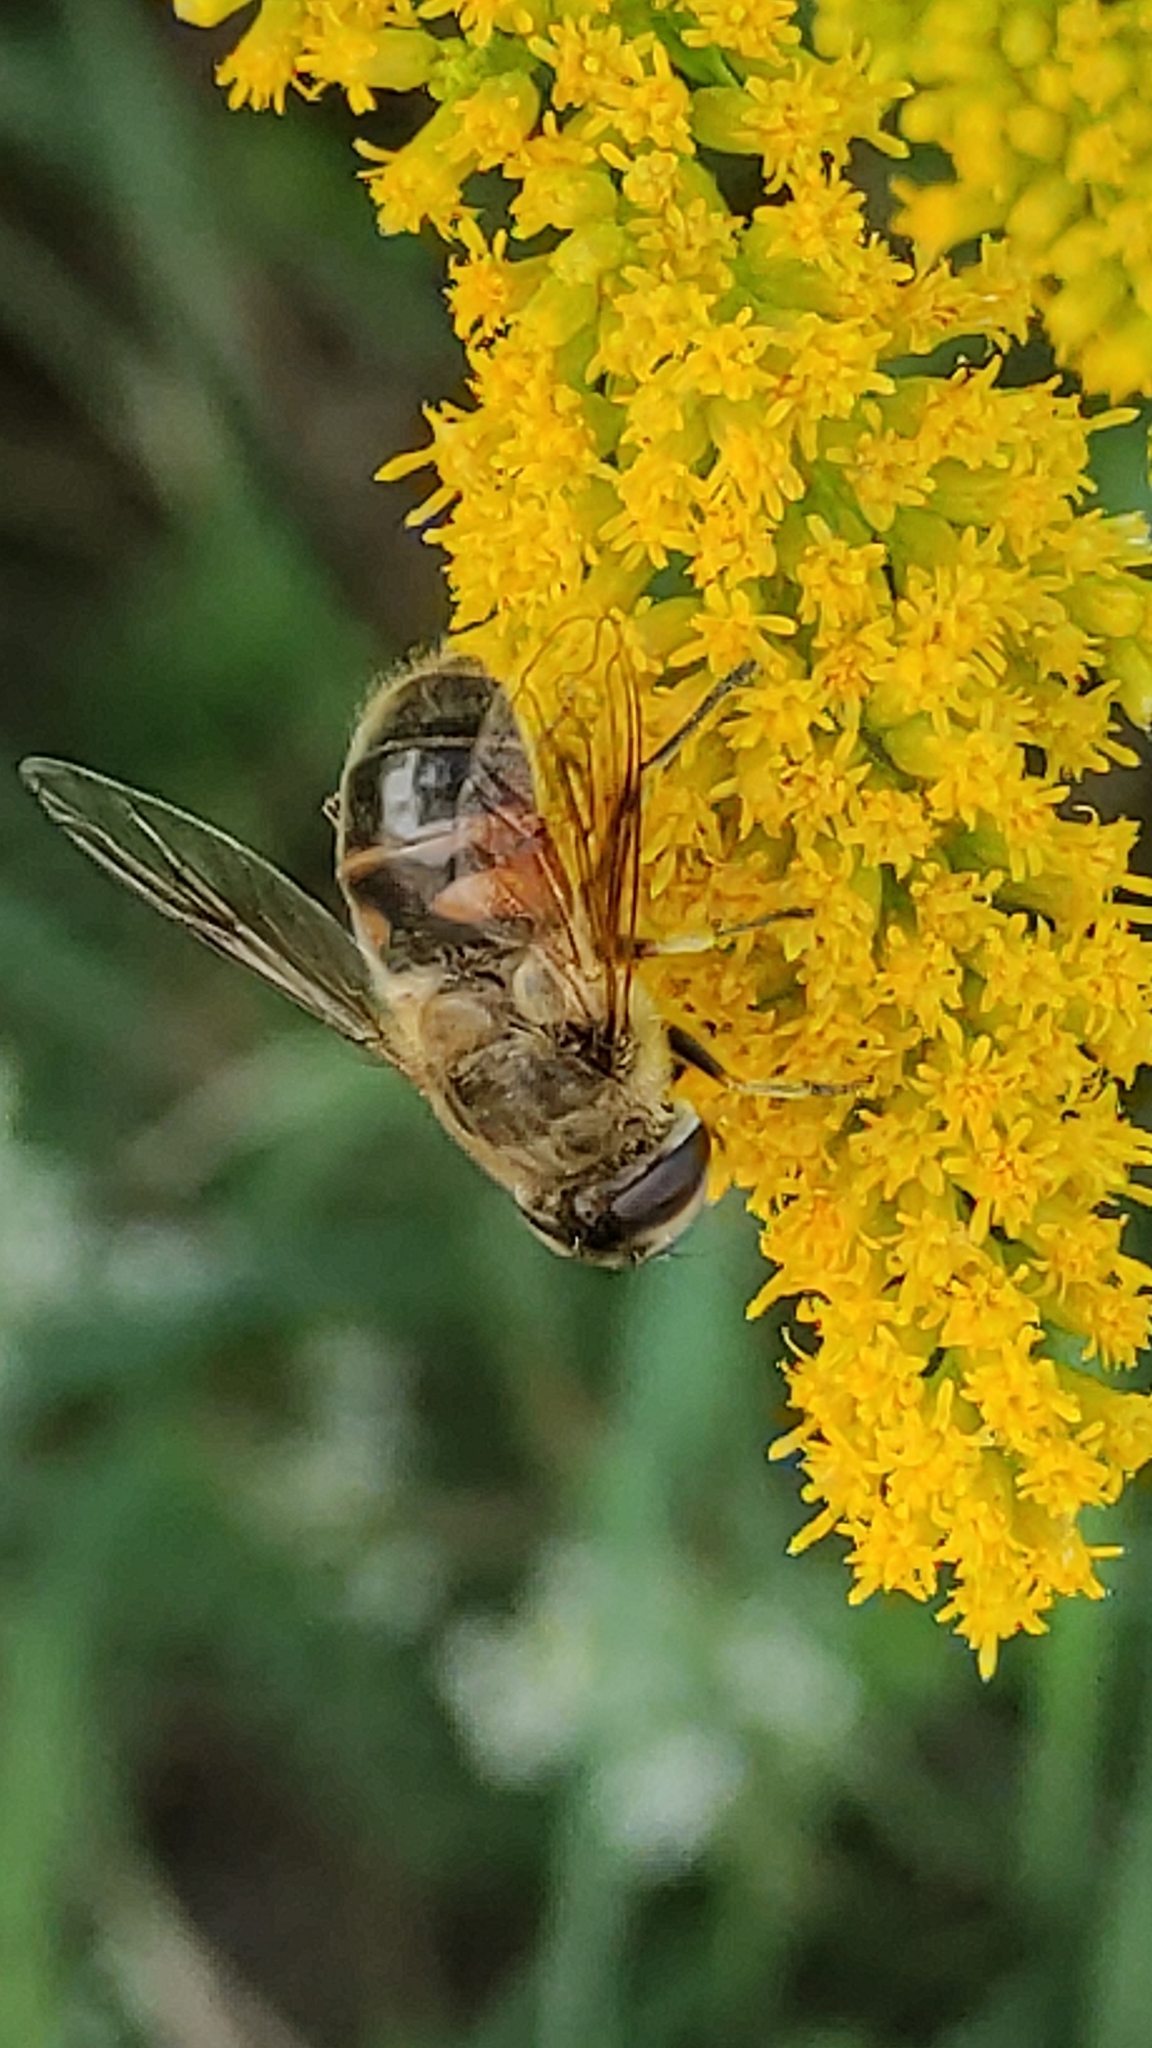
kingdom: Animalia
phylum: Arthropoda
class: Insecta
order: Diptera
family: Syrphidae
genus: Eristalis
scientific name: Eristalis tenax
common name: Drone fly
